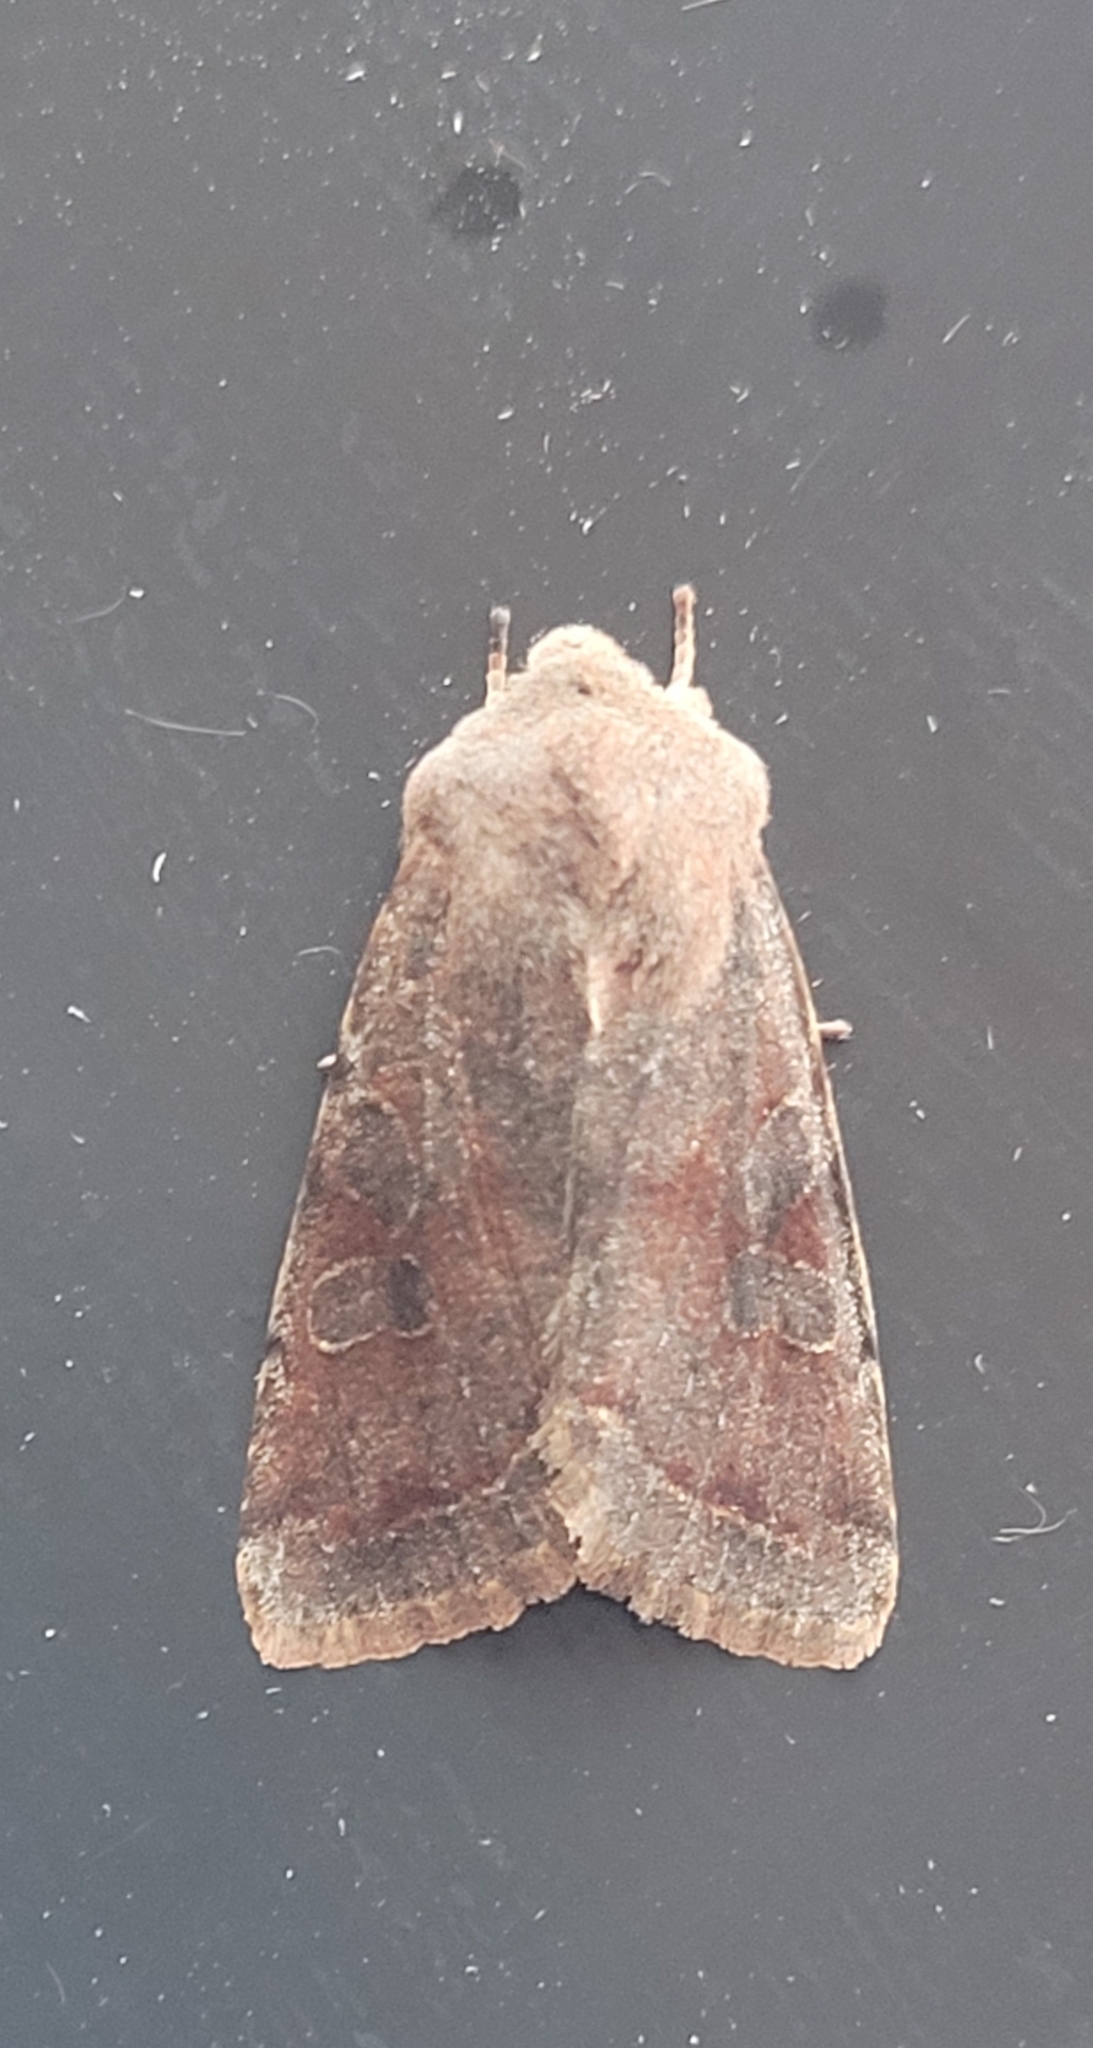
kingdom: Animalia
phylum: Arthropoda
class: Insecta
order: Lepidoptera
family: Noctuidae
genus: Orthosia
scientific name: Orthosia incerta
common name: Clouded drab
